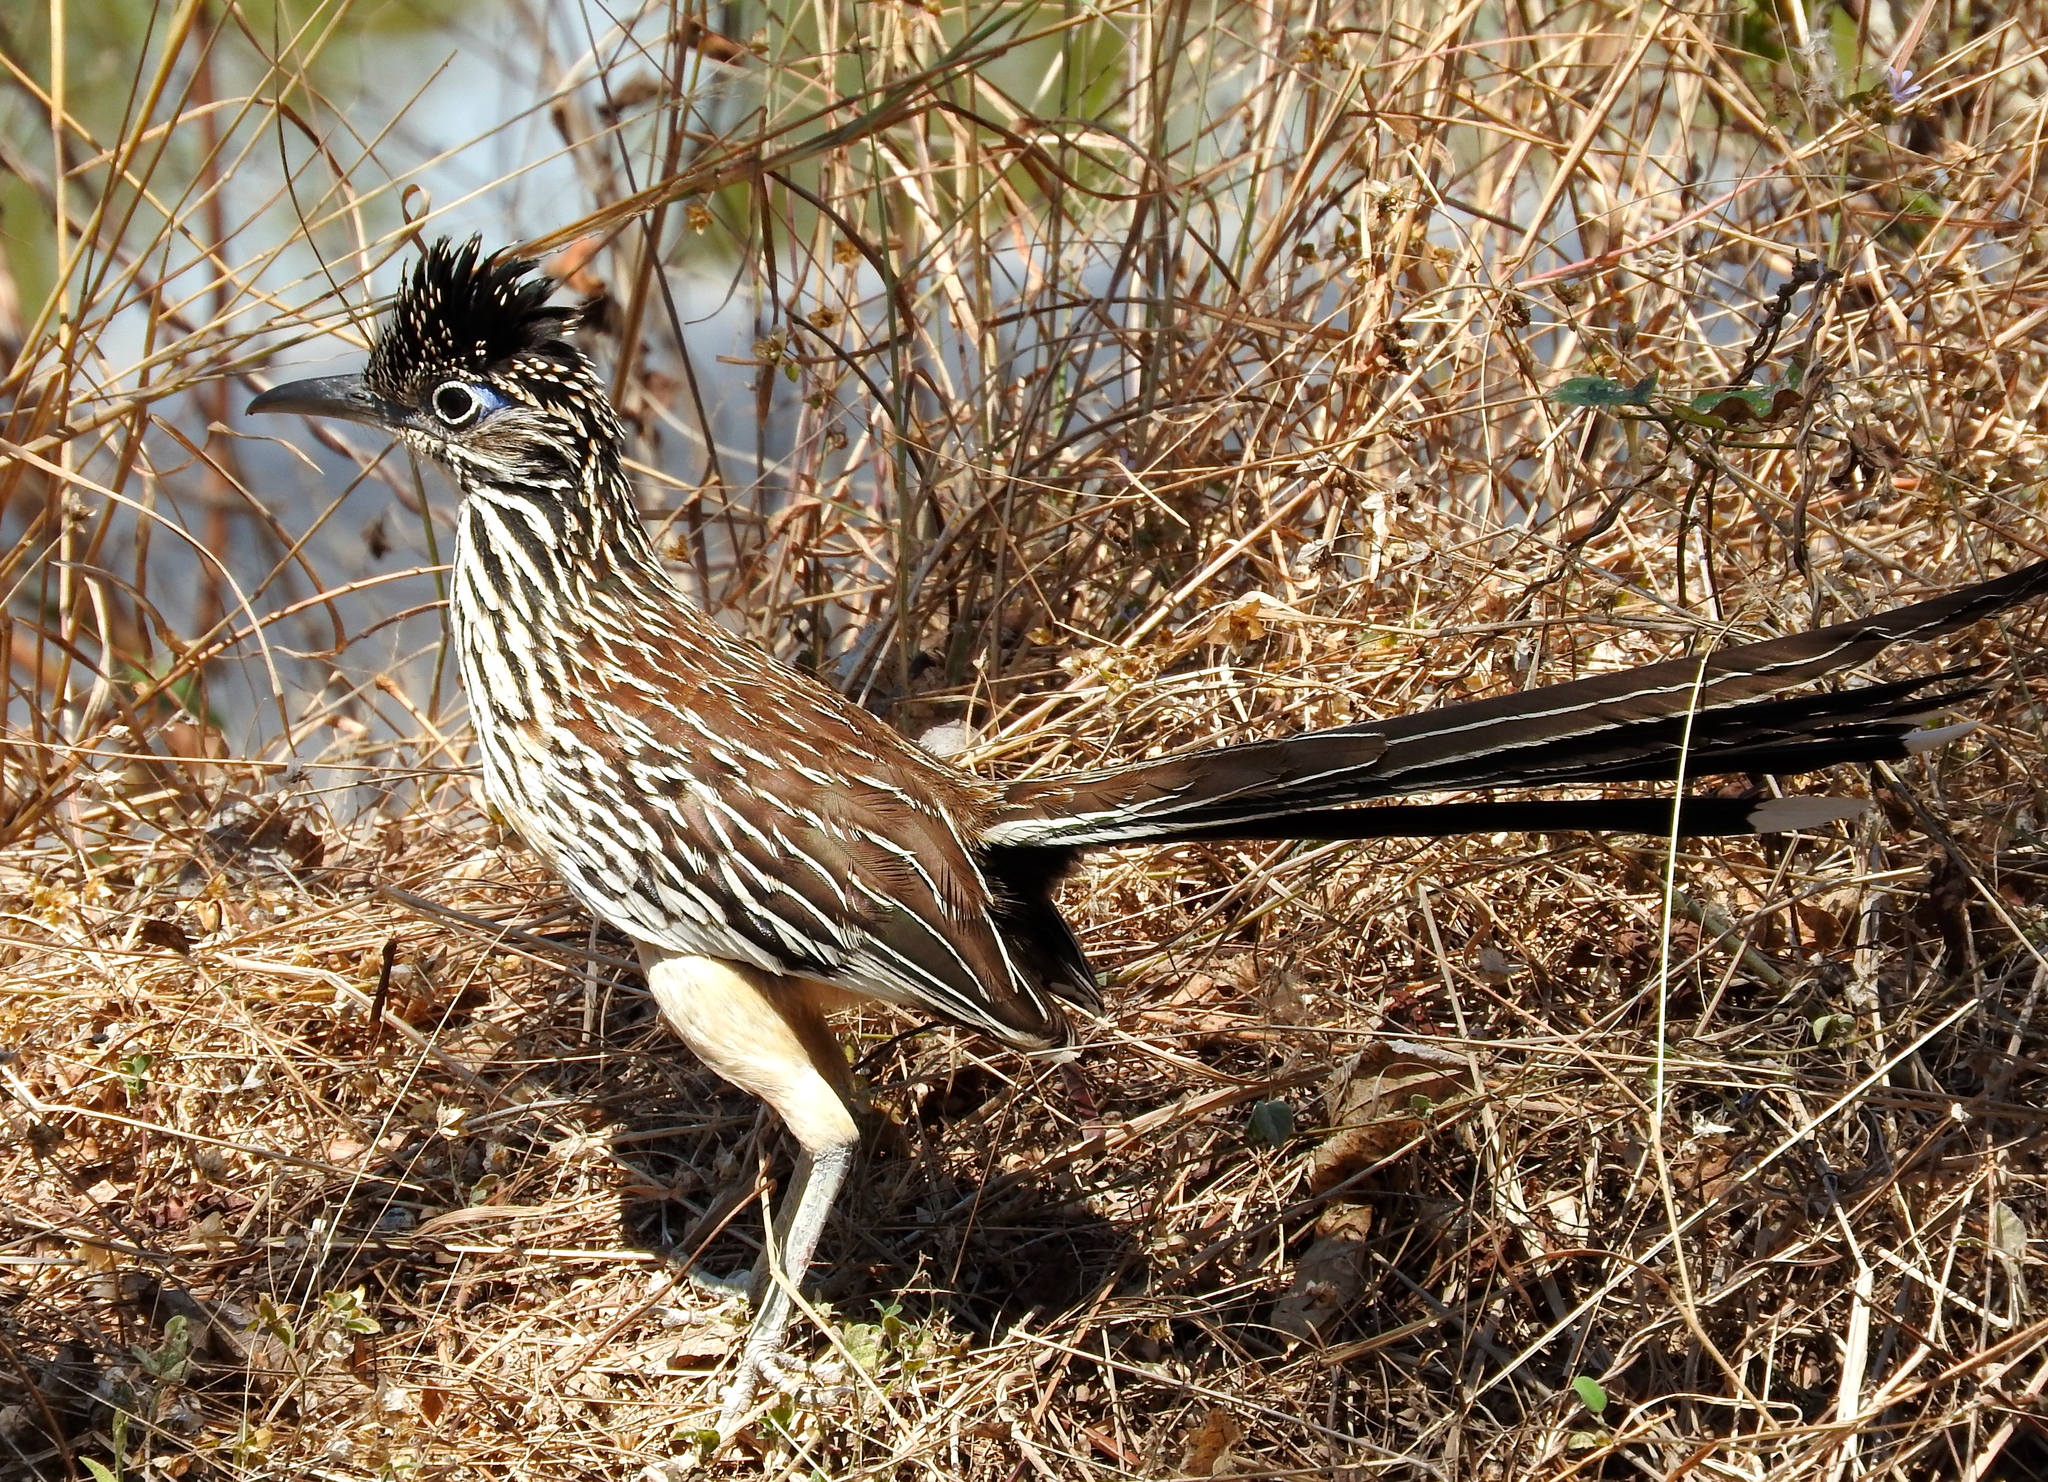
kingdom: Animalia
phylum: Chordata
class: Aves
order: Cuculiformes
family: Cuculidae
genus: Geococcyx
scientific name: Geococcyx velox
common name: Lesser roadrunner
